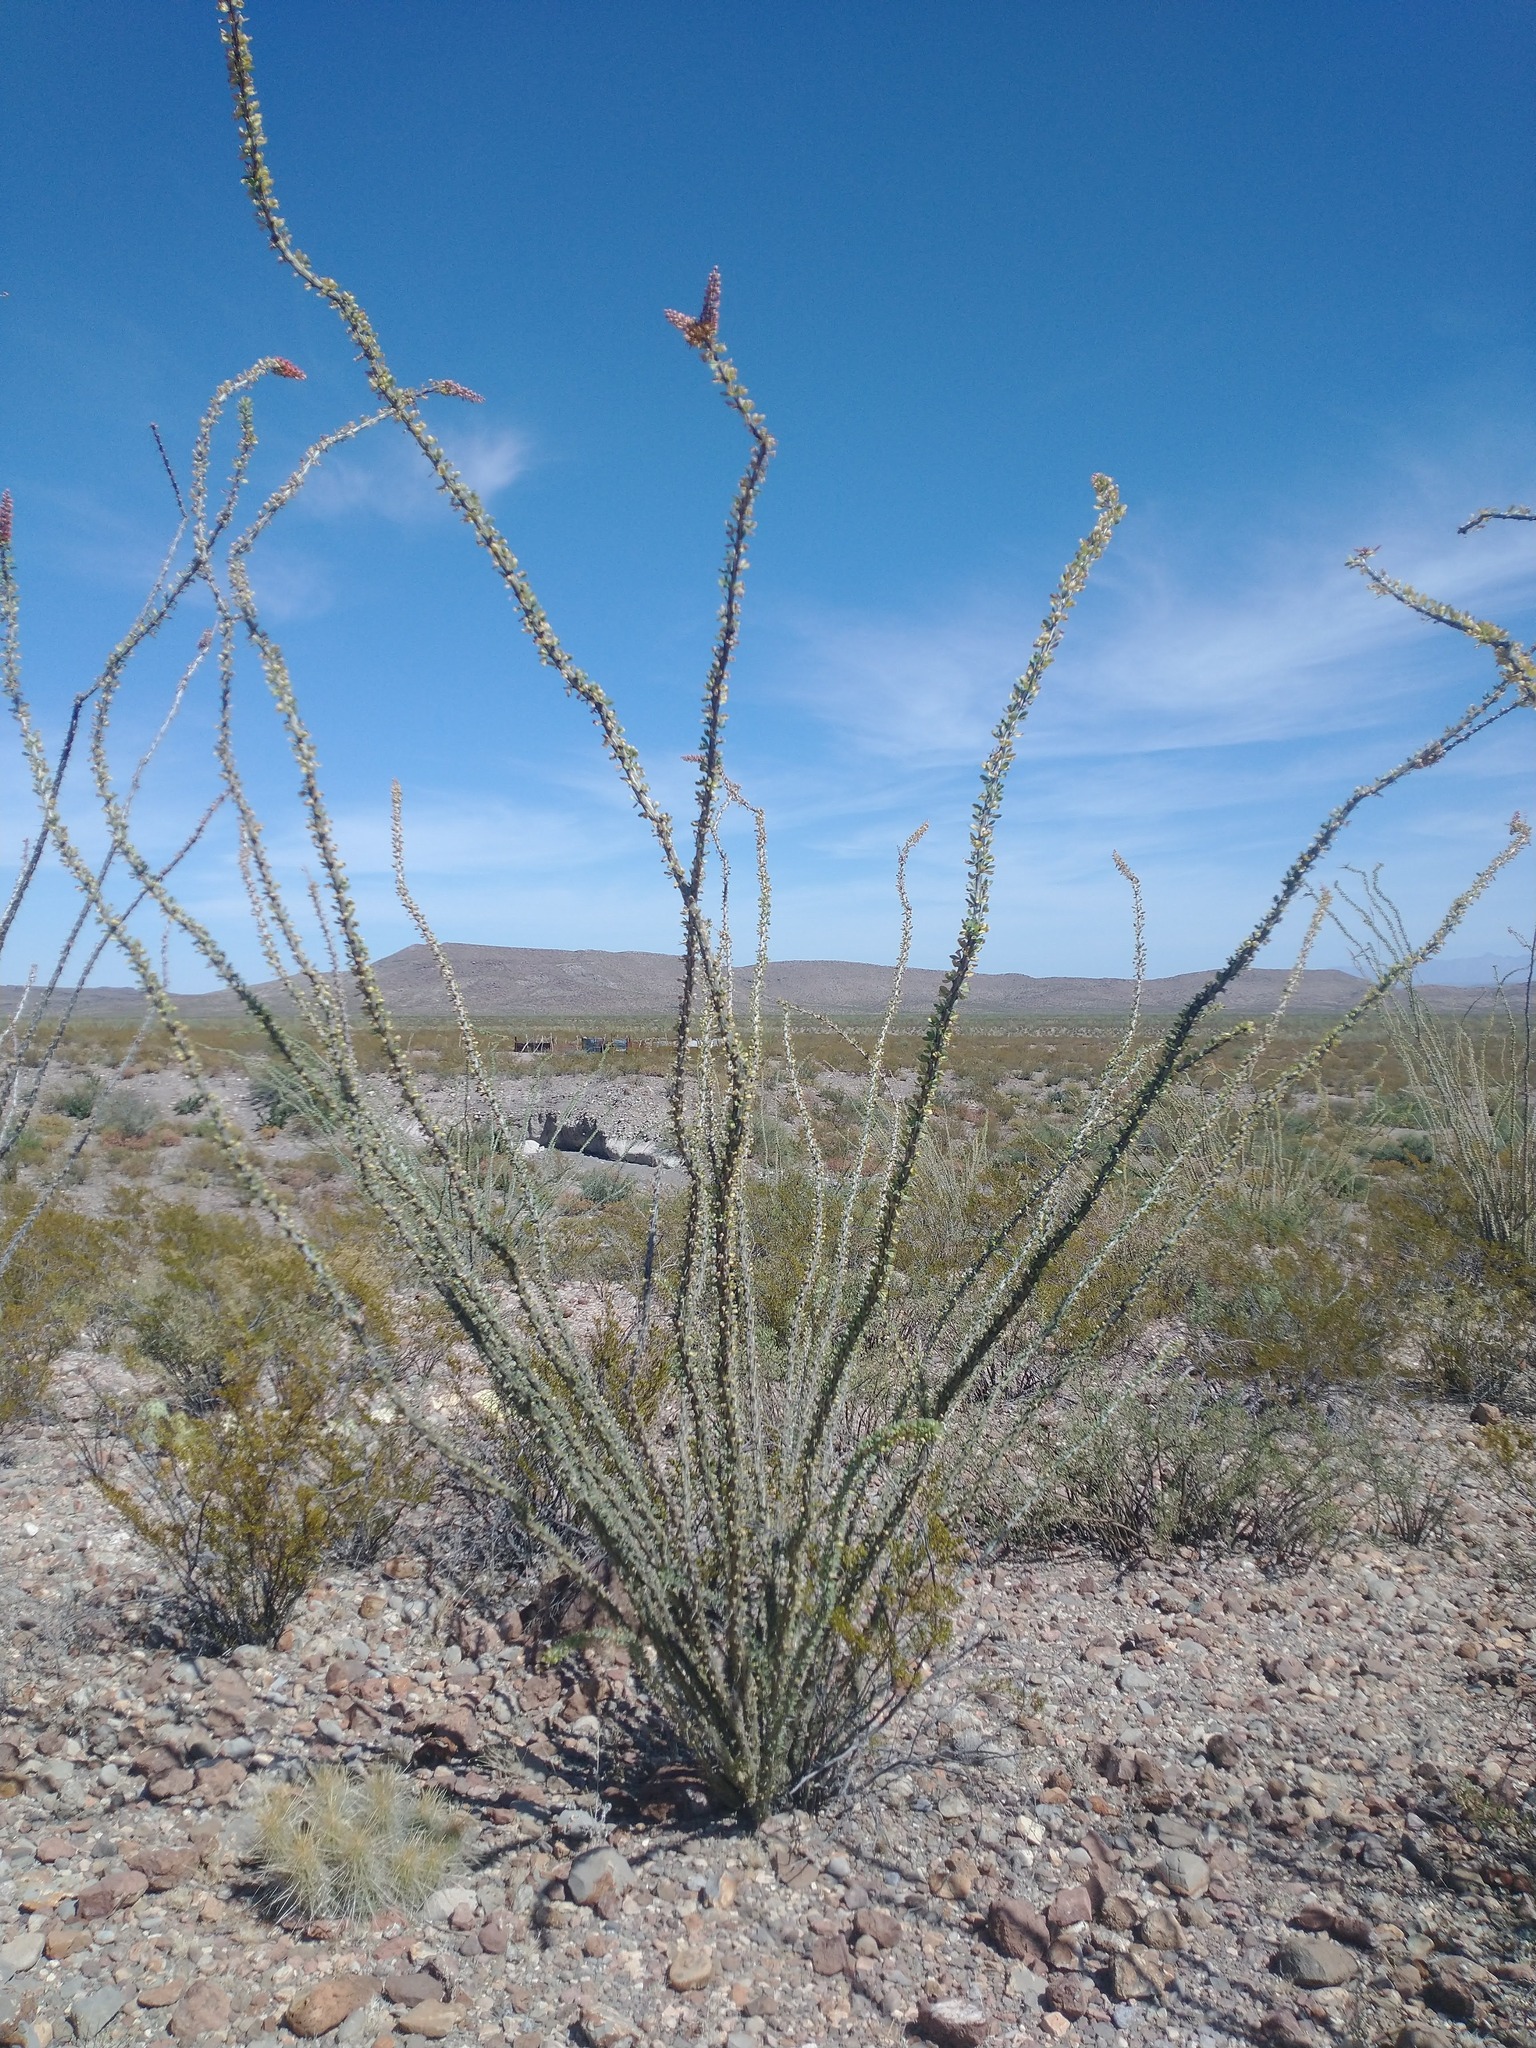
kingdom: Plantae
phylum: Tracheophyta
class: Magnoliopsida
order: Ericales
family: Fouquieriaceae
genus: Fouquieria
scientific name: Fouquieria splendens
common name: Vine-cactus
